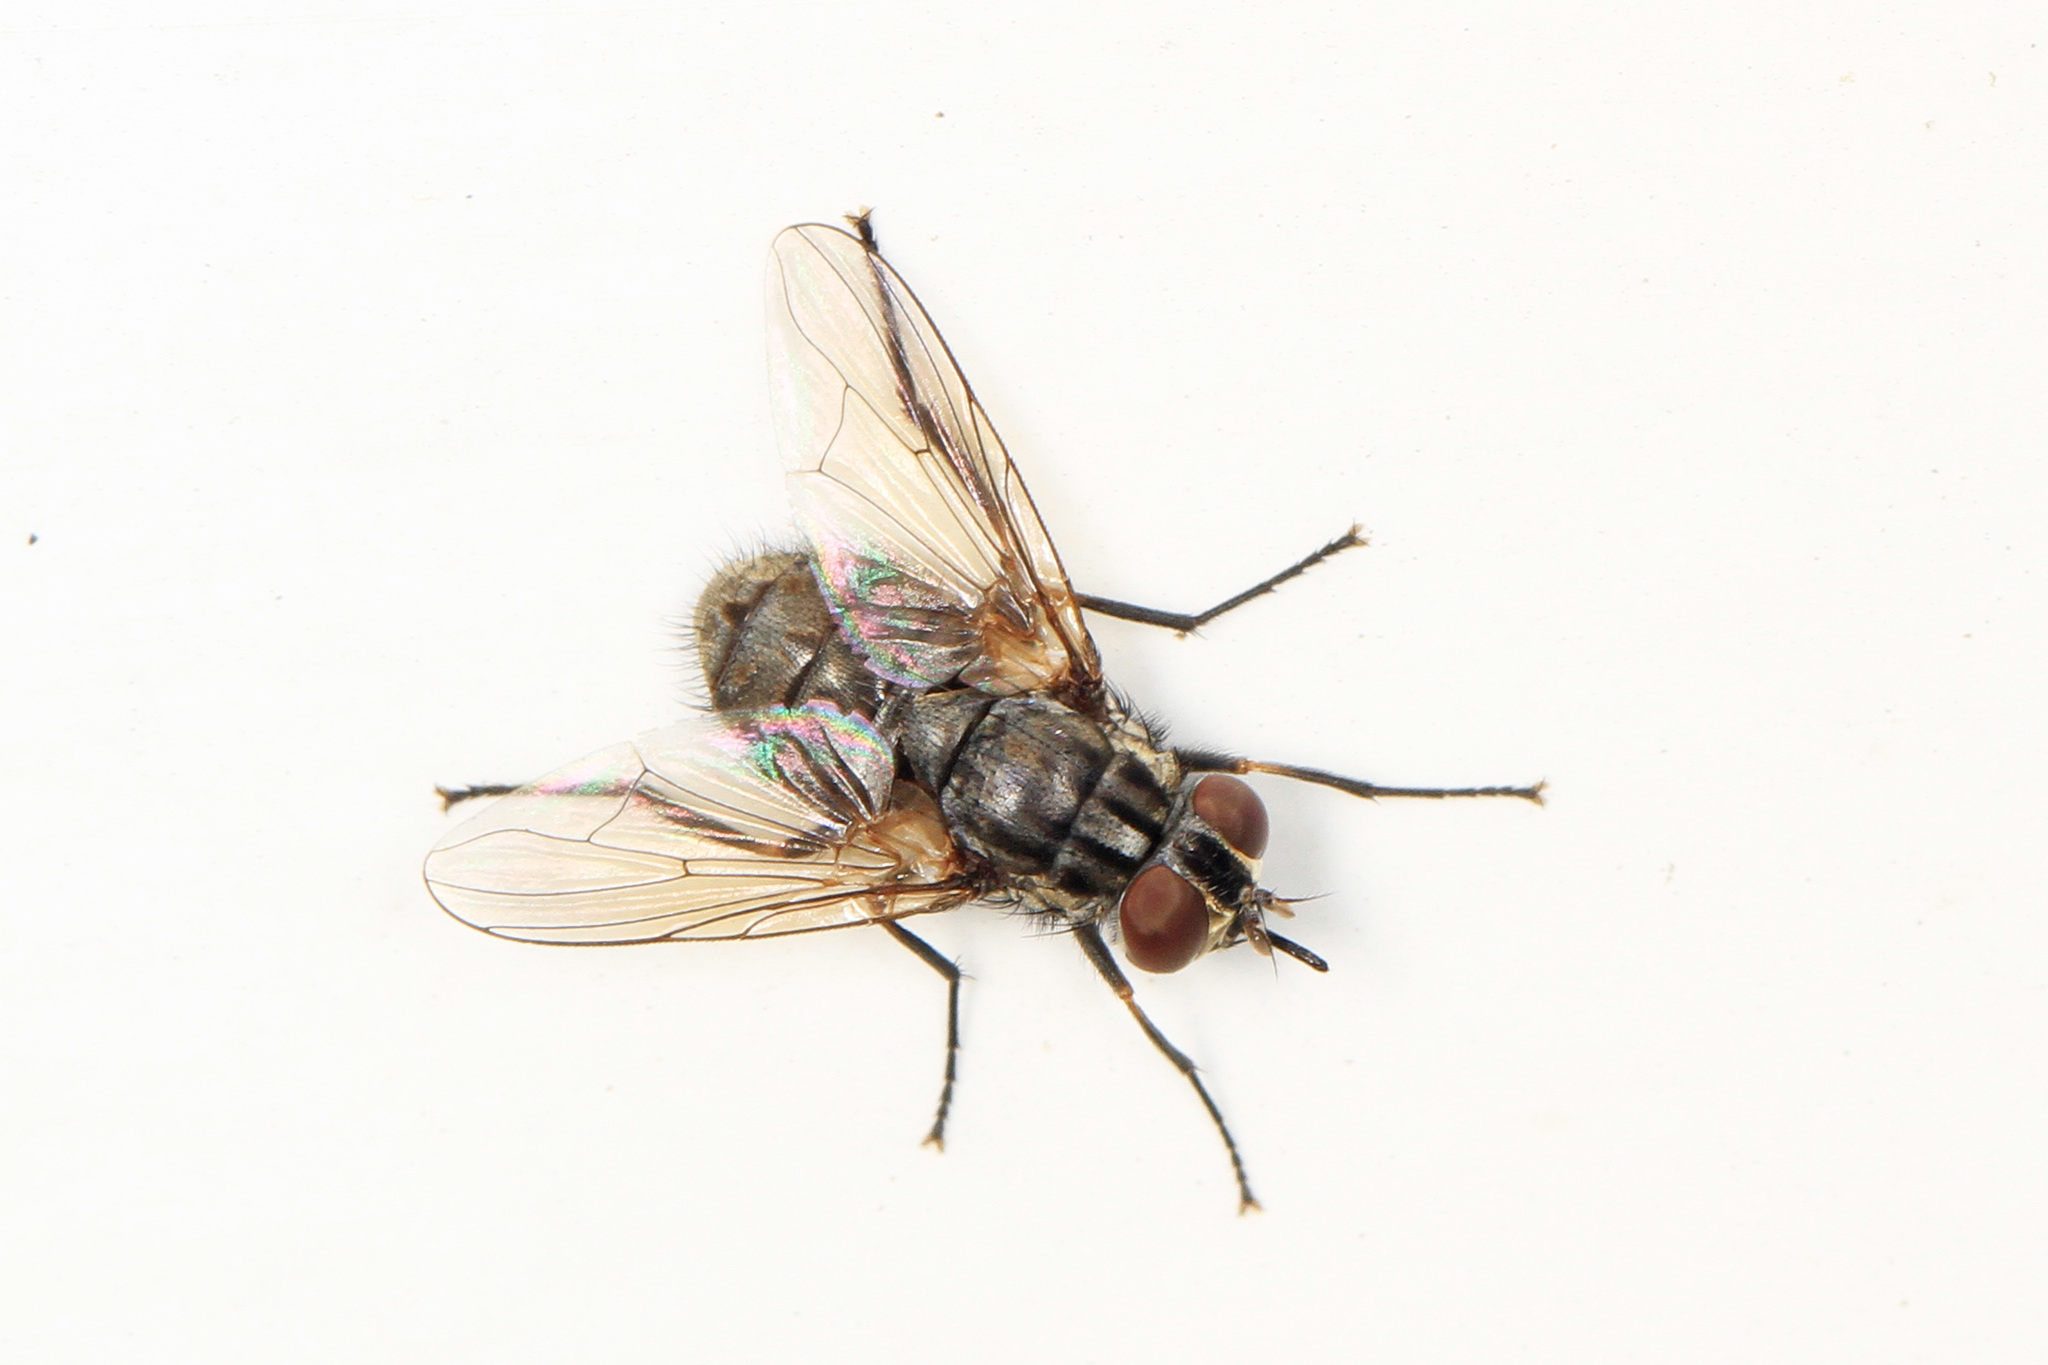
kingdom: Animalia
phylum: Arthropoda
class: Insecta
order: Diptera
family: Muscidae
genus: Stomoxys
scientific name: Stomoxys calcitrans
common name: Stable fly
